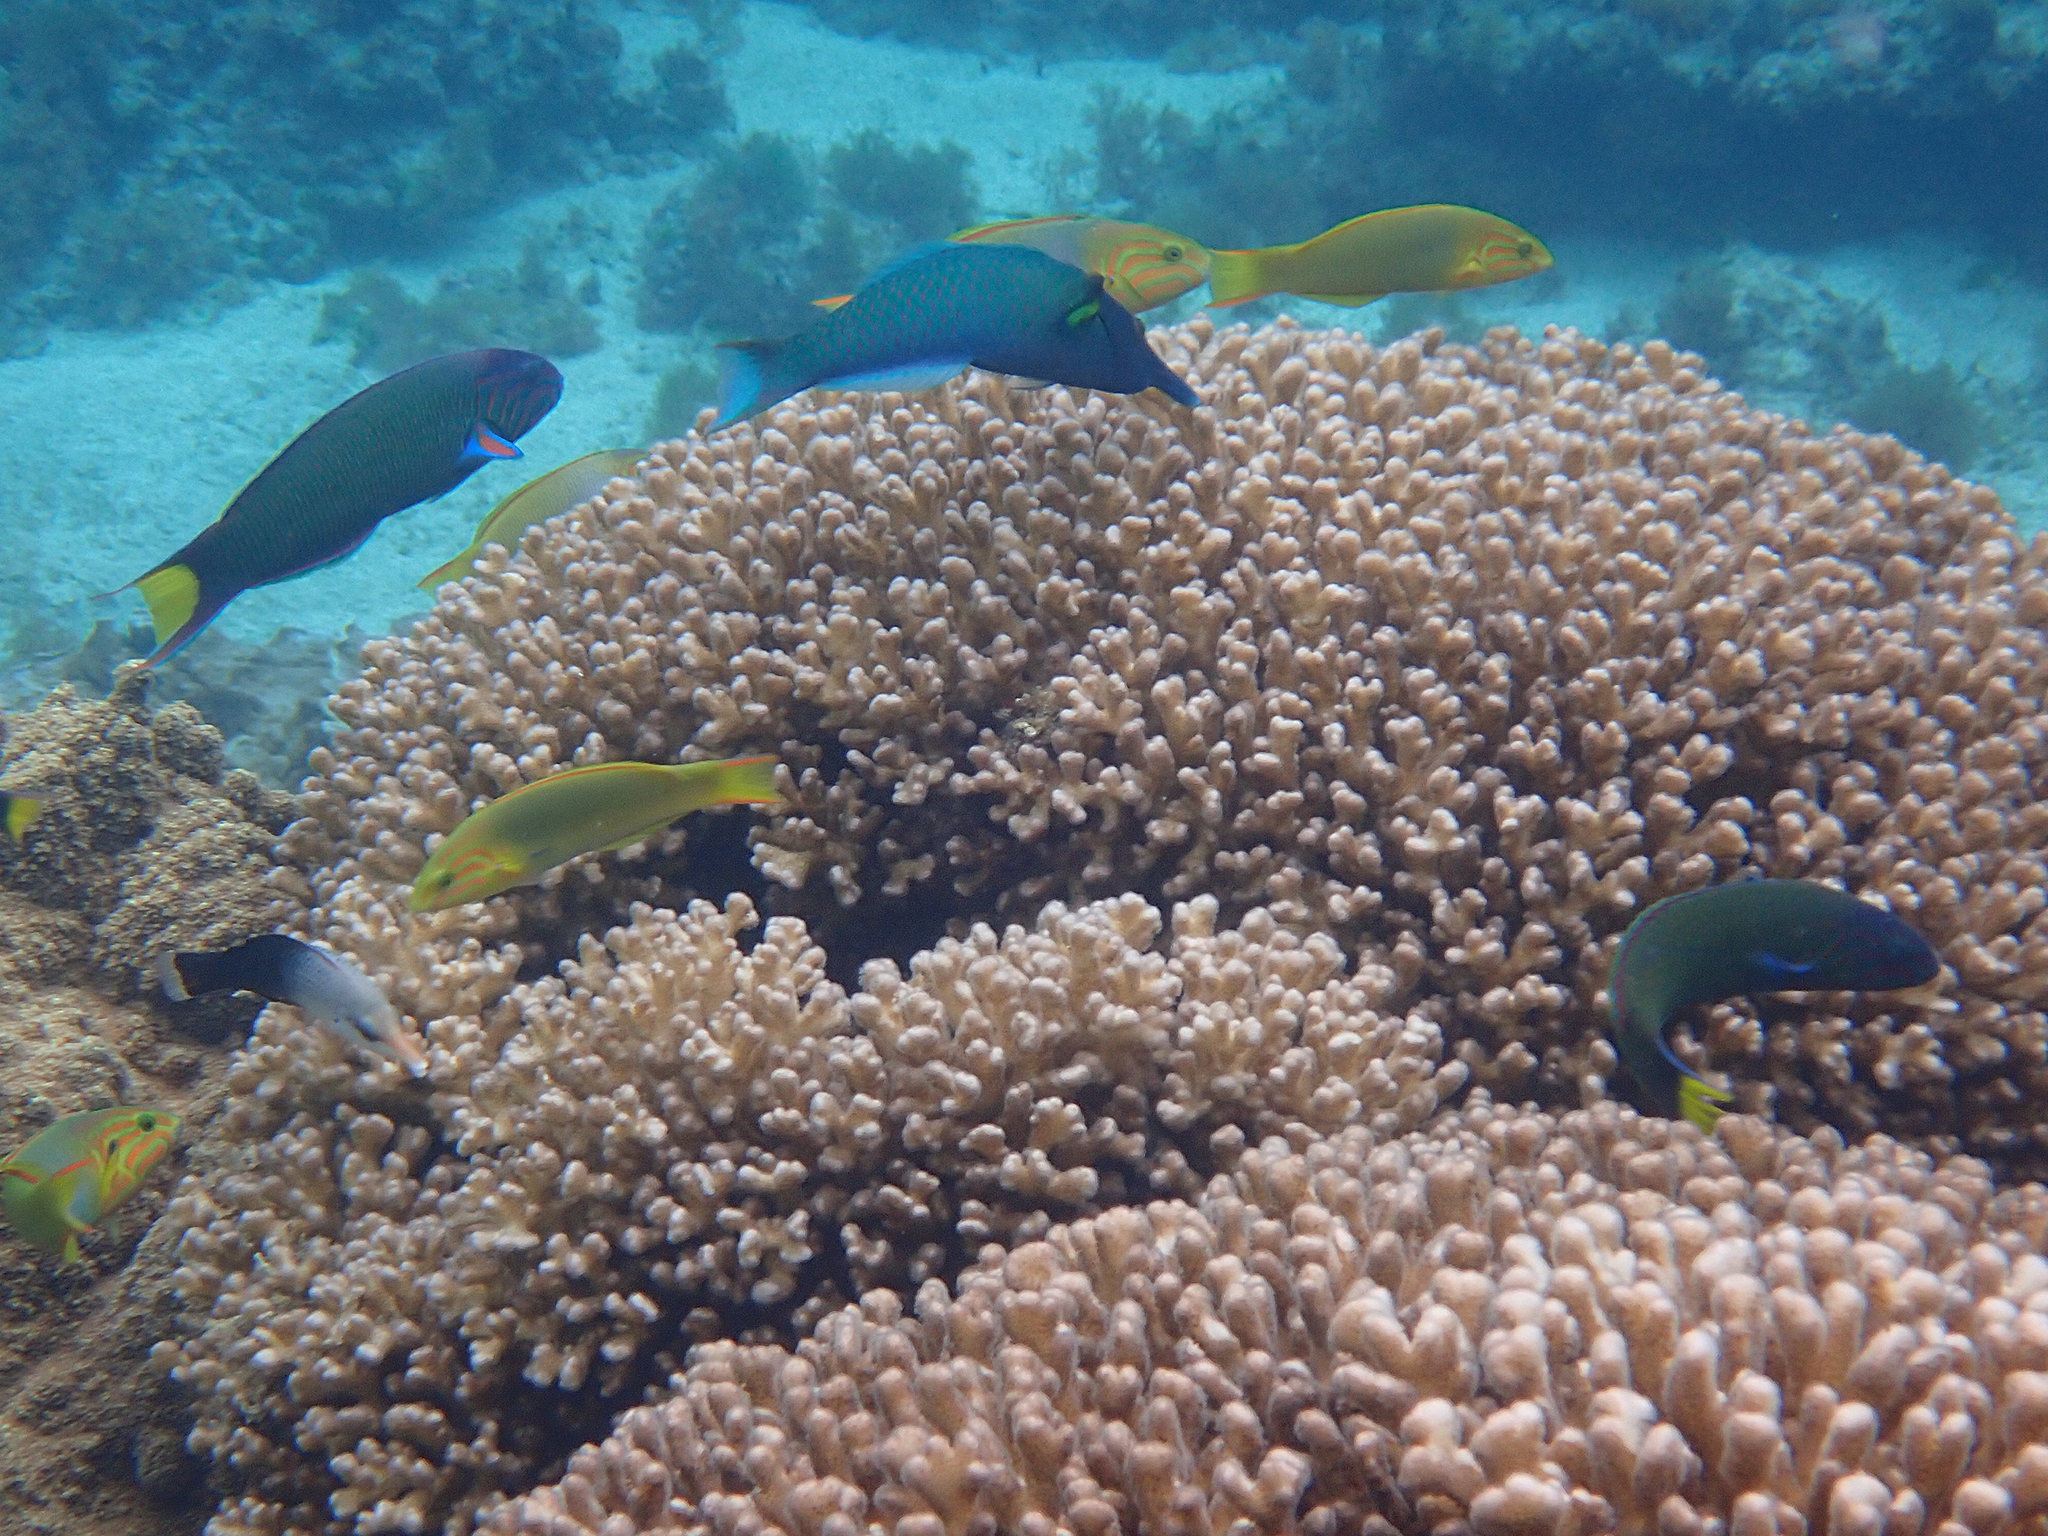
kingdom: Animalia
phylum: Cnidaria
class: Anthozoa
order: Scleractinia
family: Pocilloporidae
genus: Pocillopora
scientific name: Pocillopora damicornis
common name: Cauliflower coral
